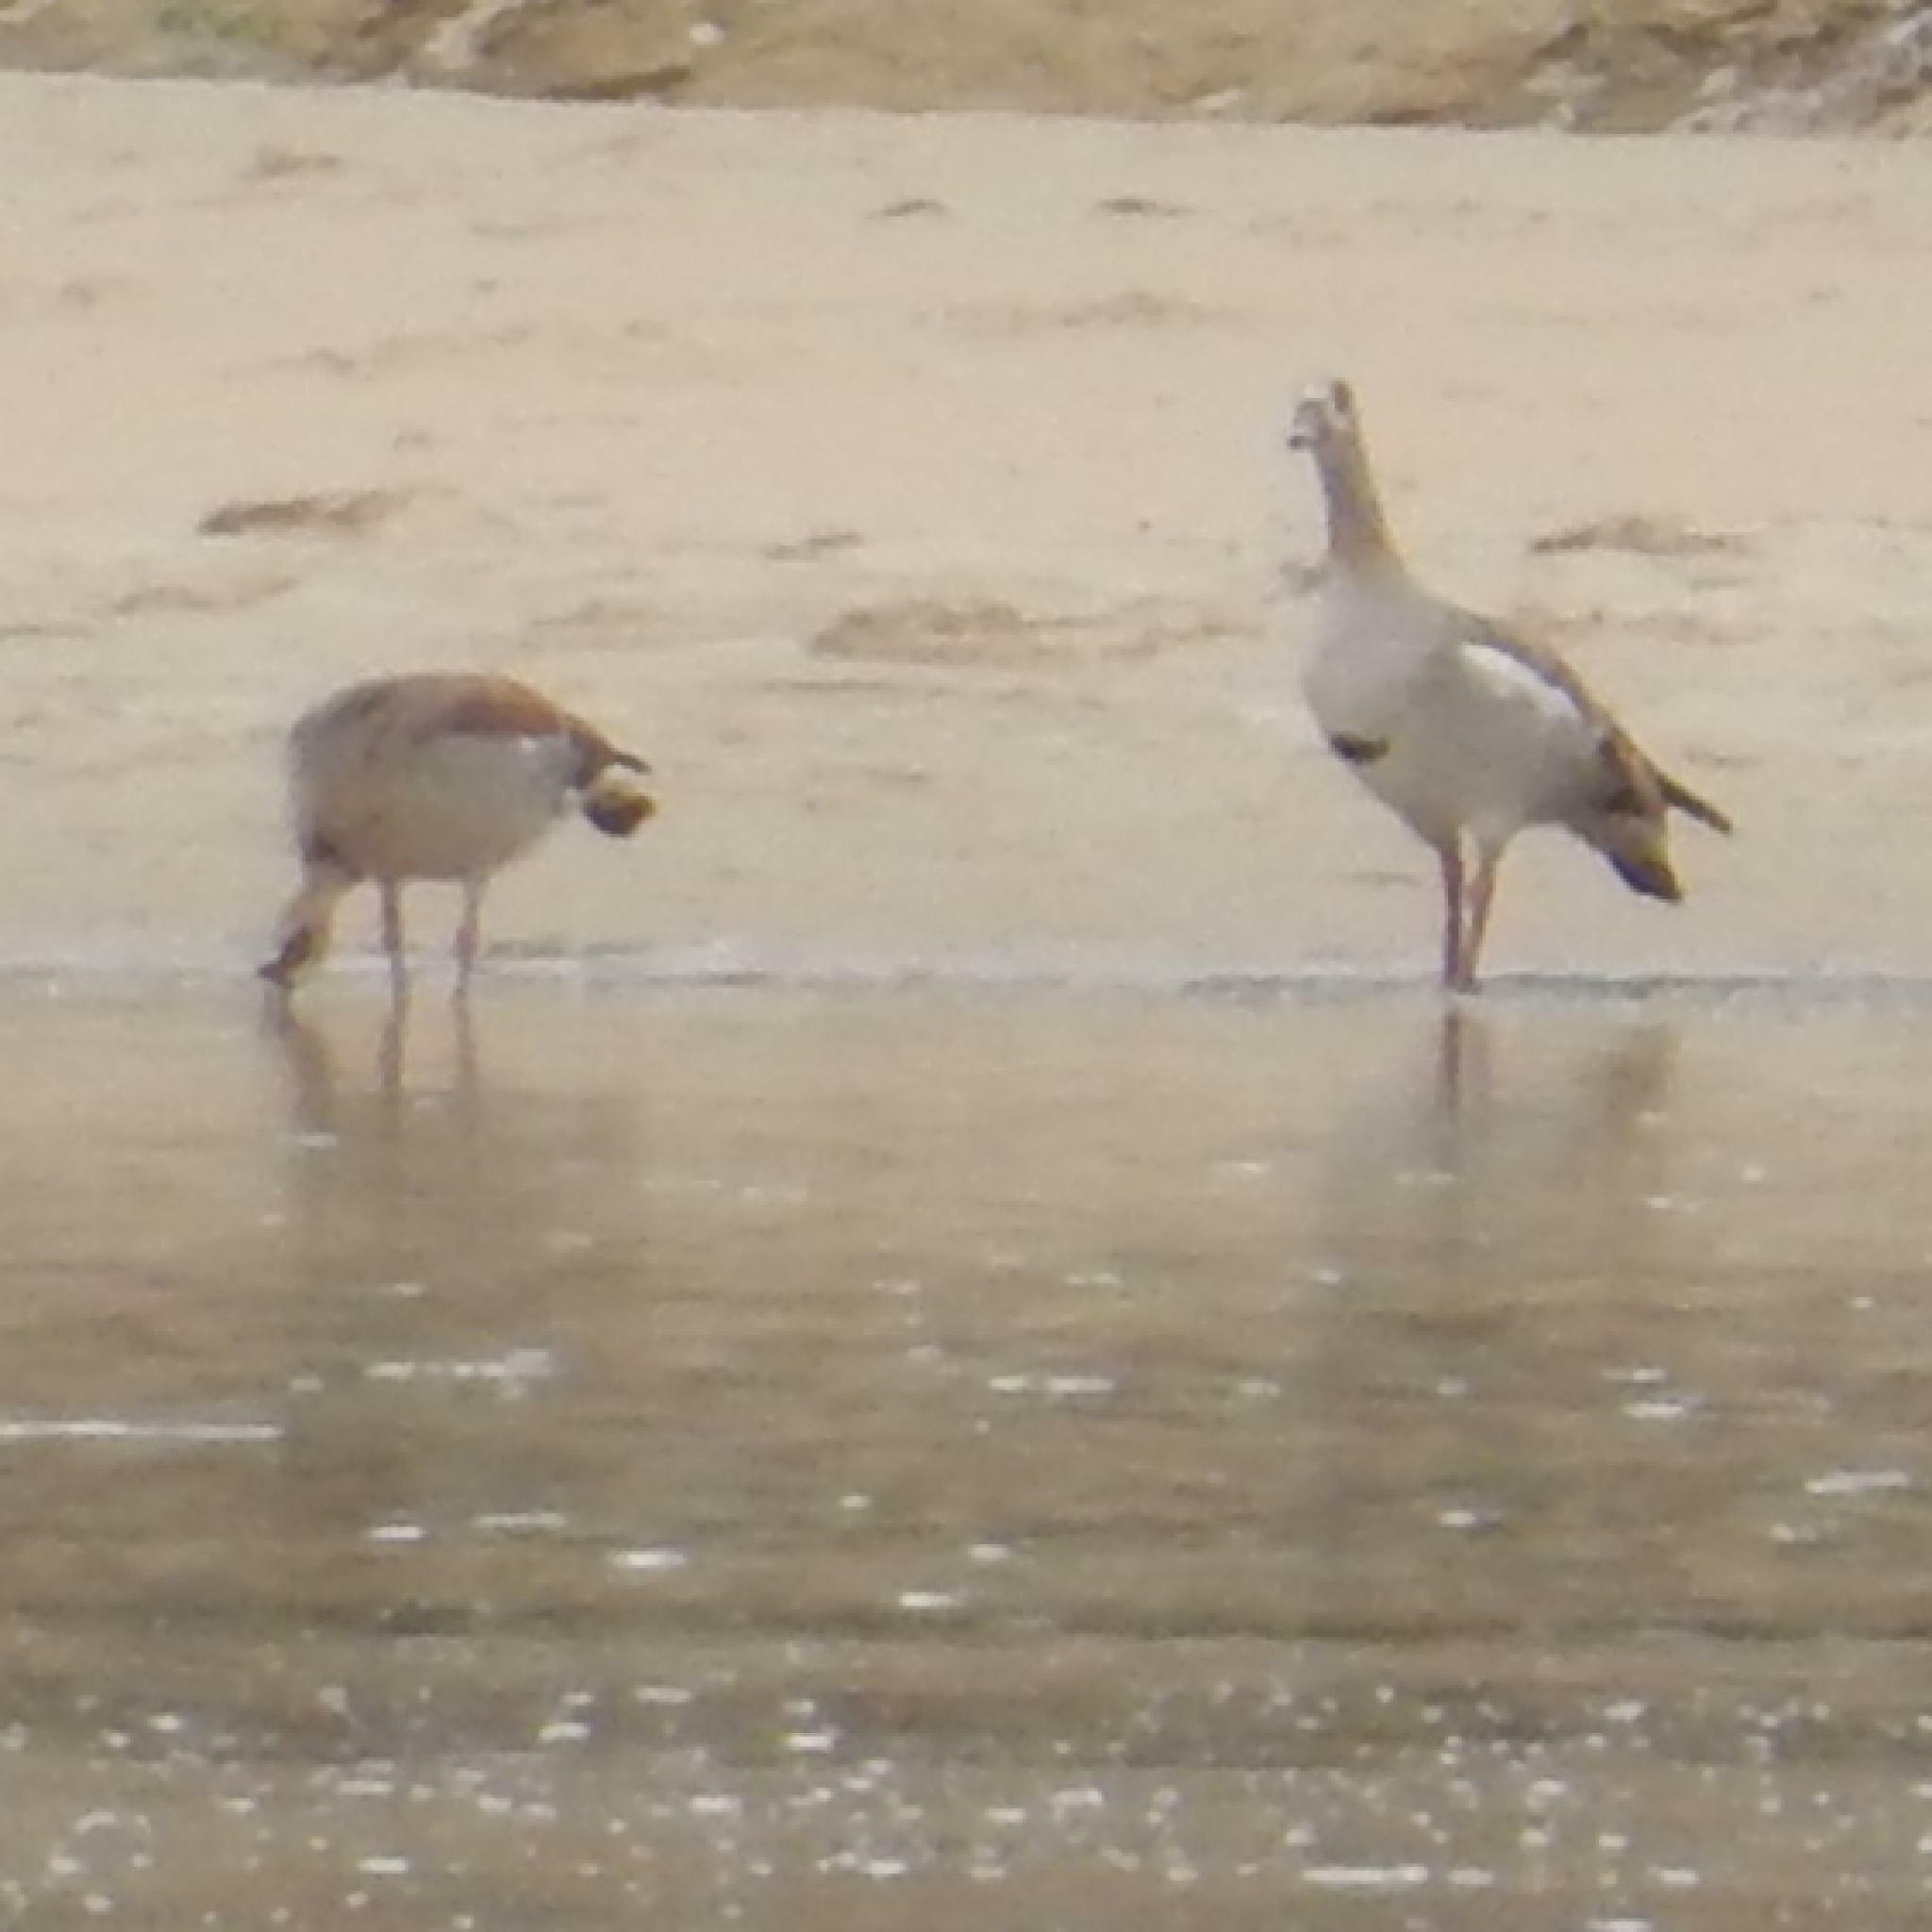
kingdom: Animalia
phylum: Chordata
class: Aves
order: Anseriformes
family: Anatidae
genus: Alopochen
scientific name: Alopochen aegyptiaca
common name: Egyptian goose
